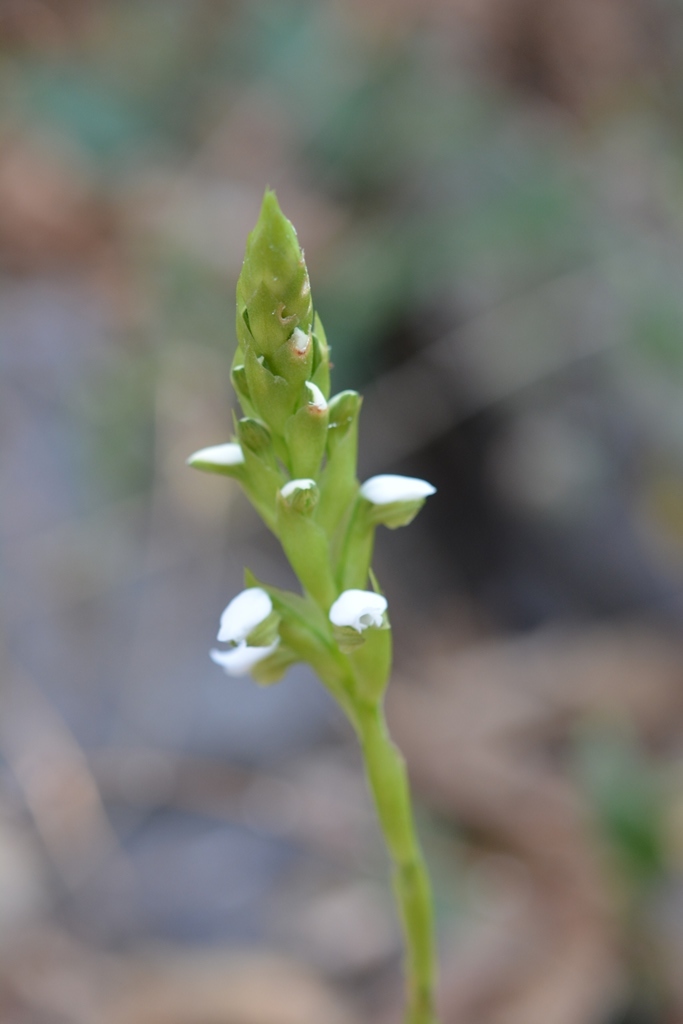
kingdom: Plantae
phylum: Tracheophyta
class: Liliopsida
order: Asparagales
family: Orchidaceae
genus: Aulosepalum
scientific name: Aulosepalum hemichrea
